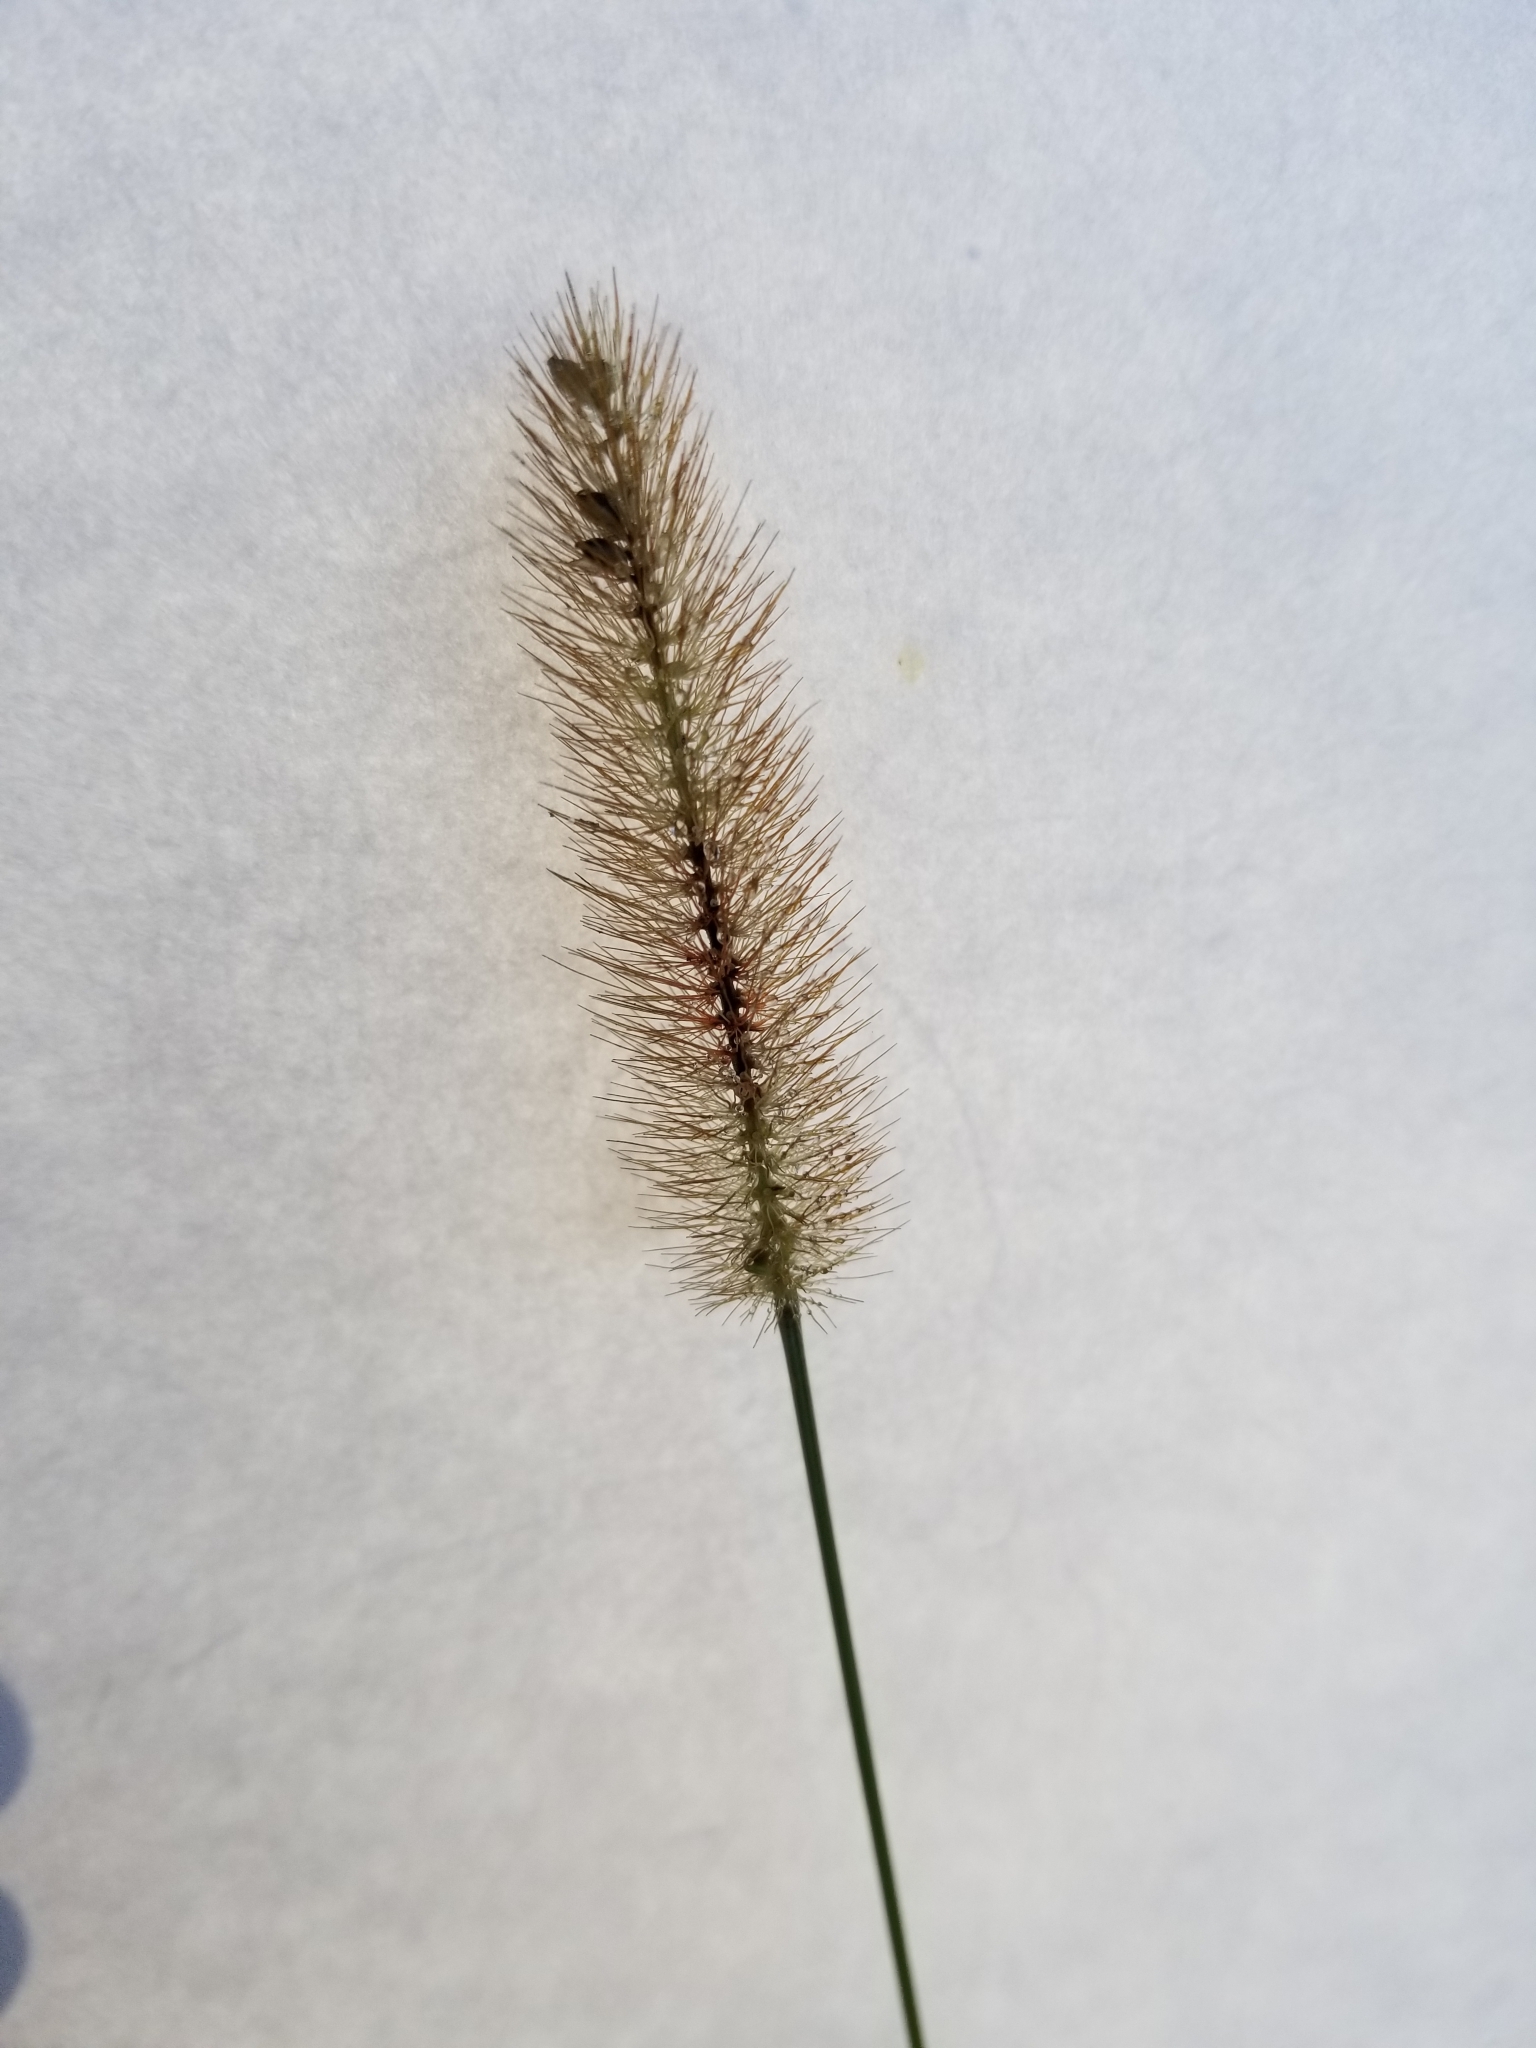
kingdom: Plantae
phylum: Tracheophyta
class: Liliopsida
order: Poales
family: Poaceae
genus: Setaria
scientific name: Setaria parviflora
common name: Knotroot bristle-grass
